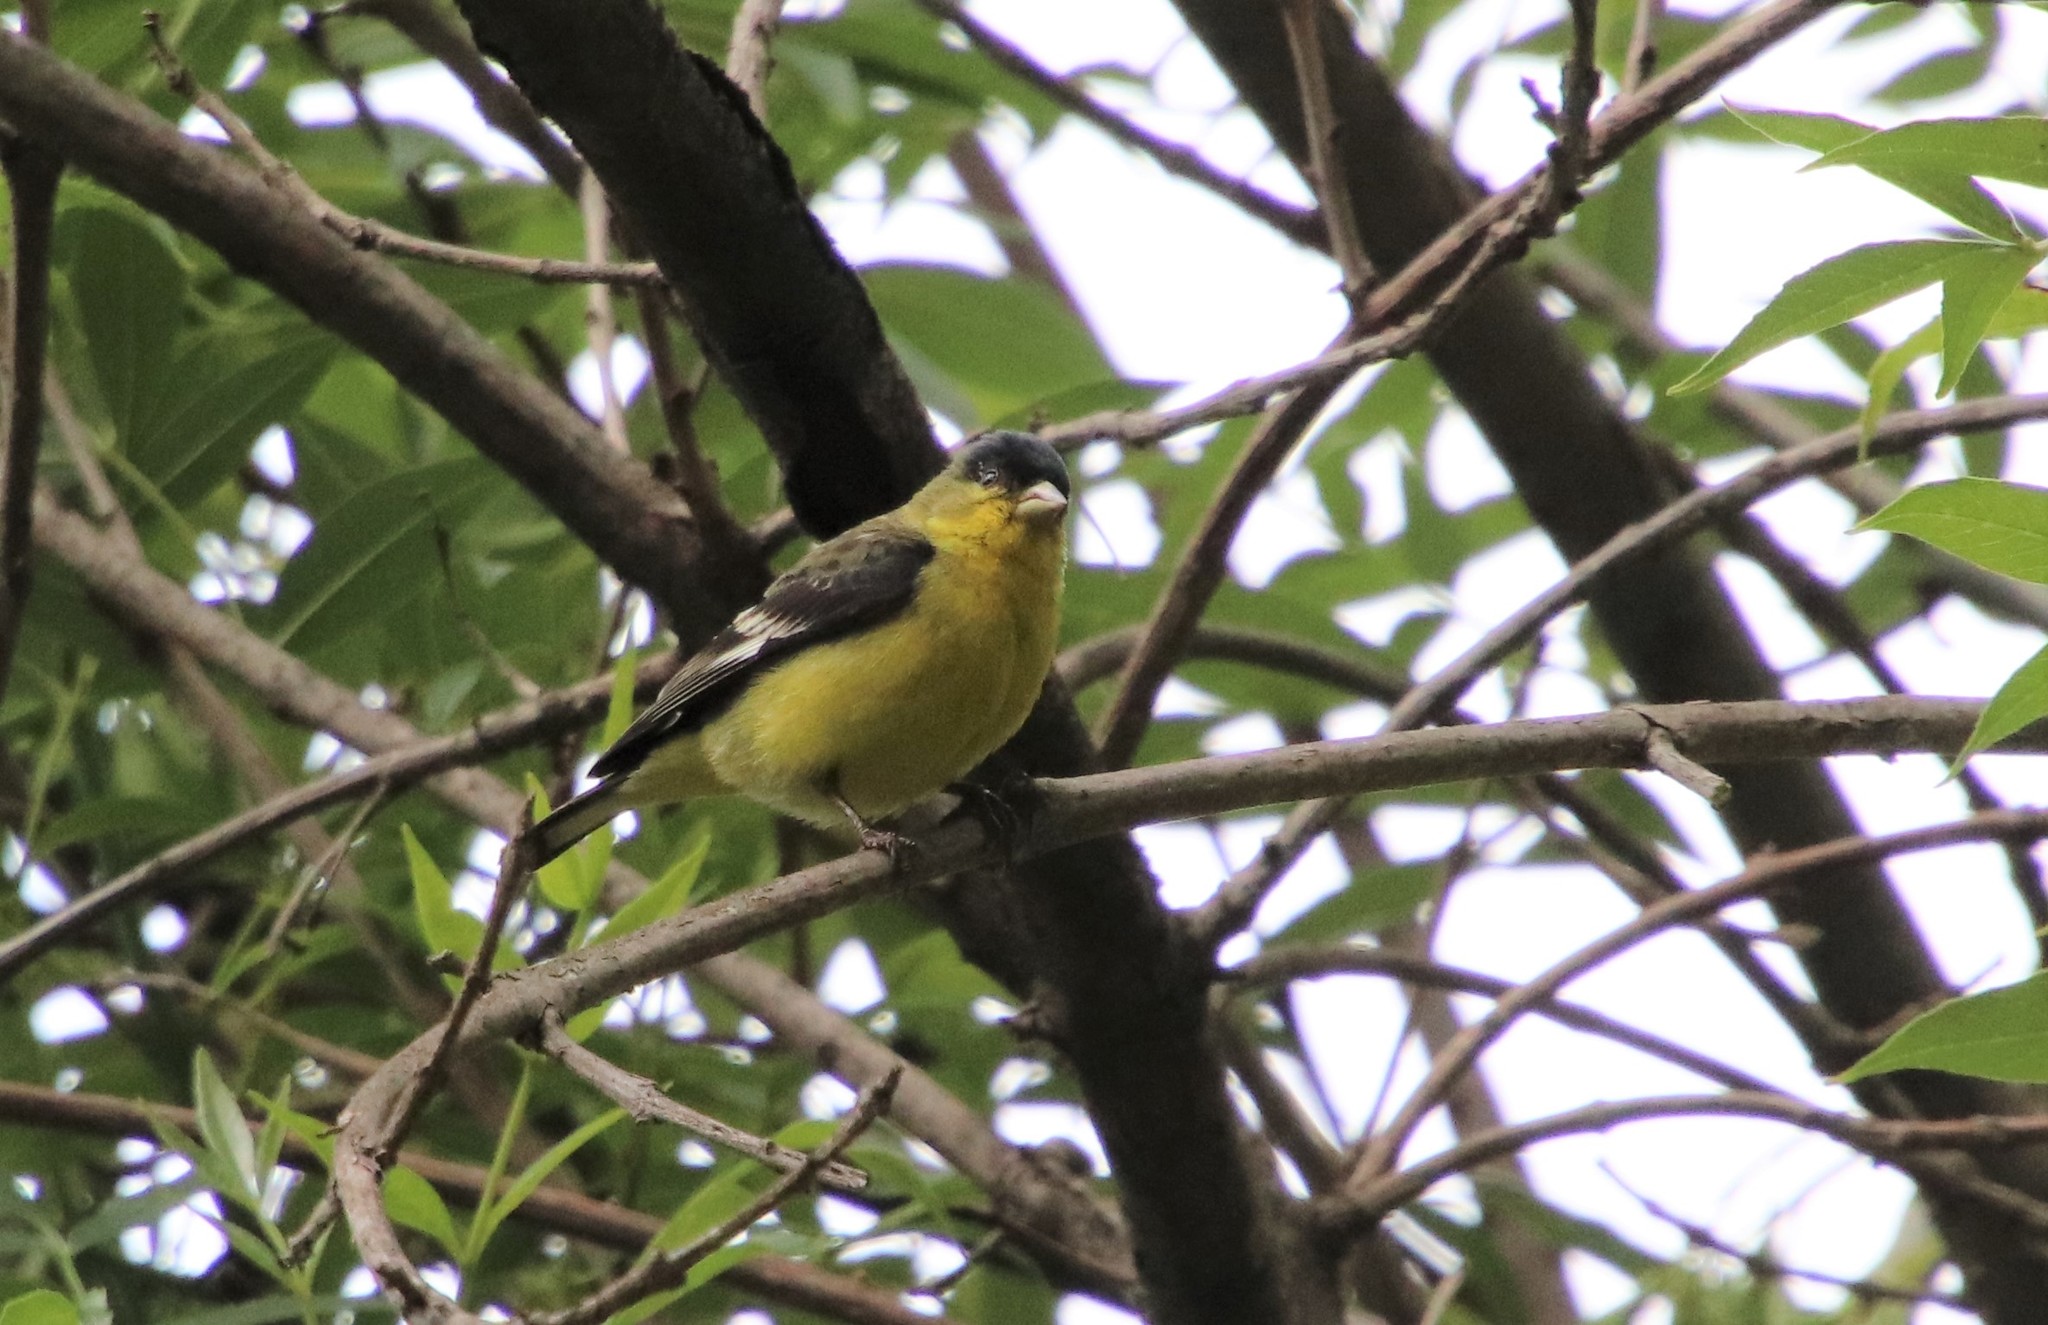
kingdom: Animalia
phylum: Chordata
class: Aves
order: Passeriformes
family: Fringillidae
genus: Spinus
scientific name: Spinus psaltria
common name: Lesser goldfinch
